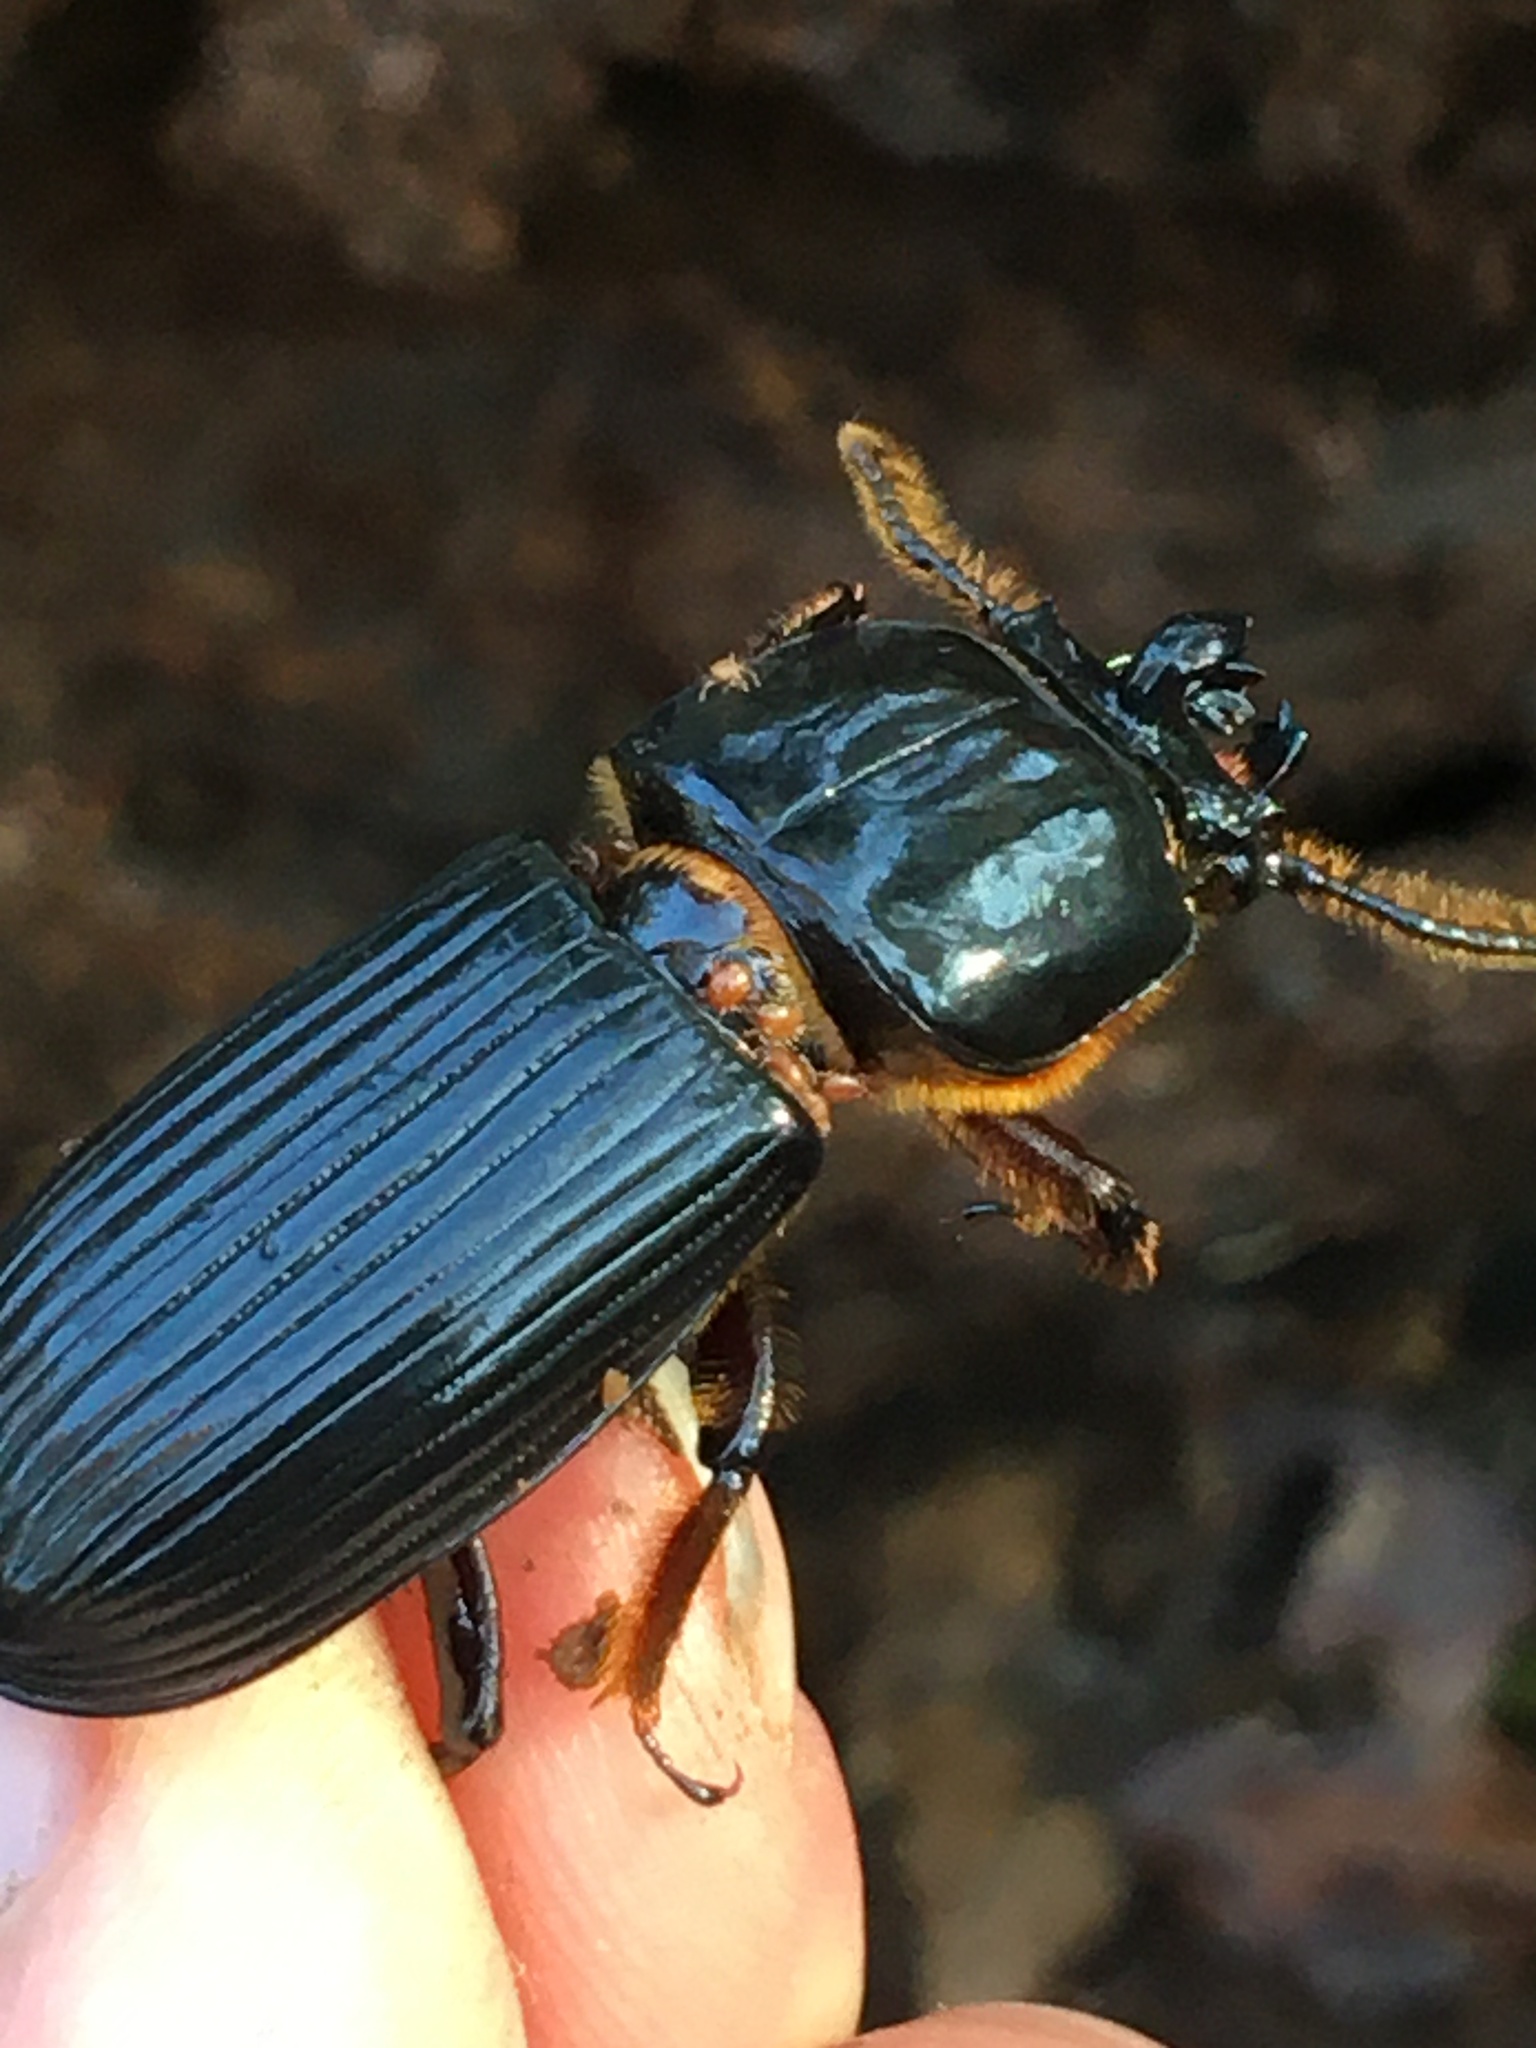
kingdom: Animalia
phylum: Arthropoda
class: Insecta
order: Coleoptera
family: Passalidae
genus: Odontotaenius
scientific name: Odontotaenius disjunctus
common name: Patent leather beetle
